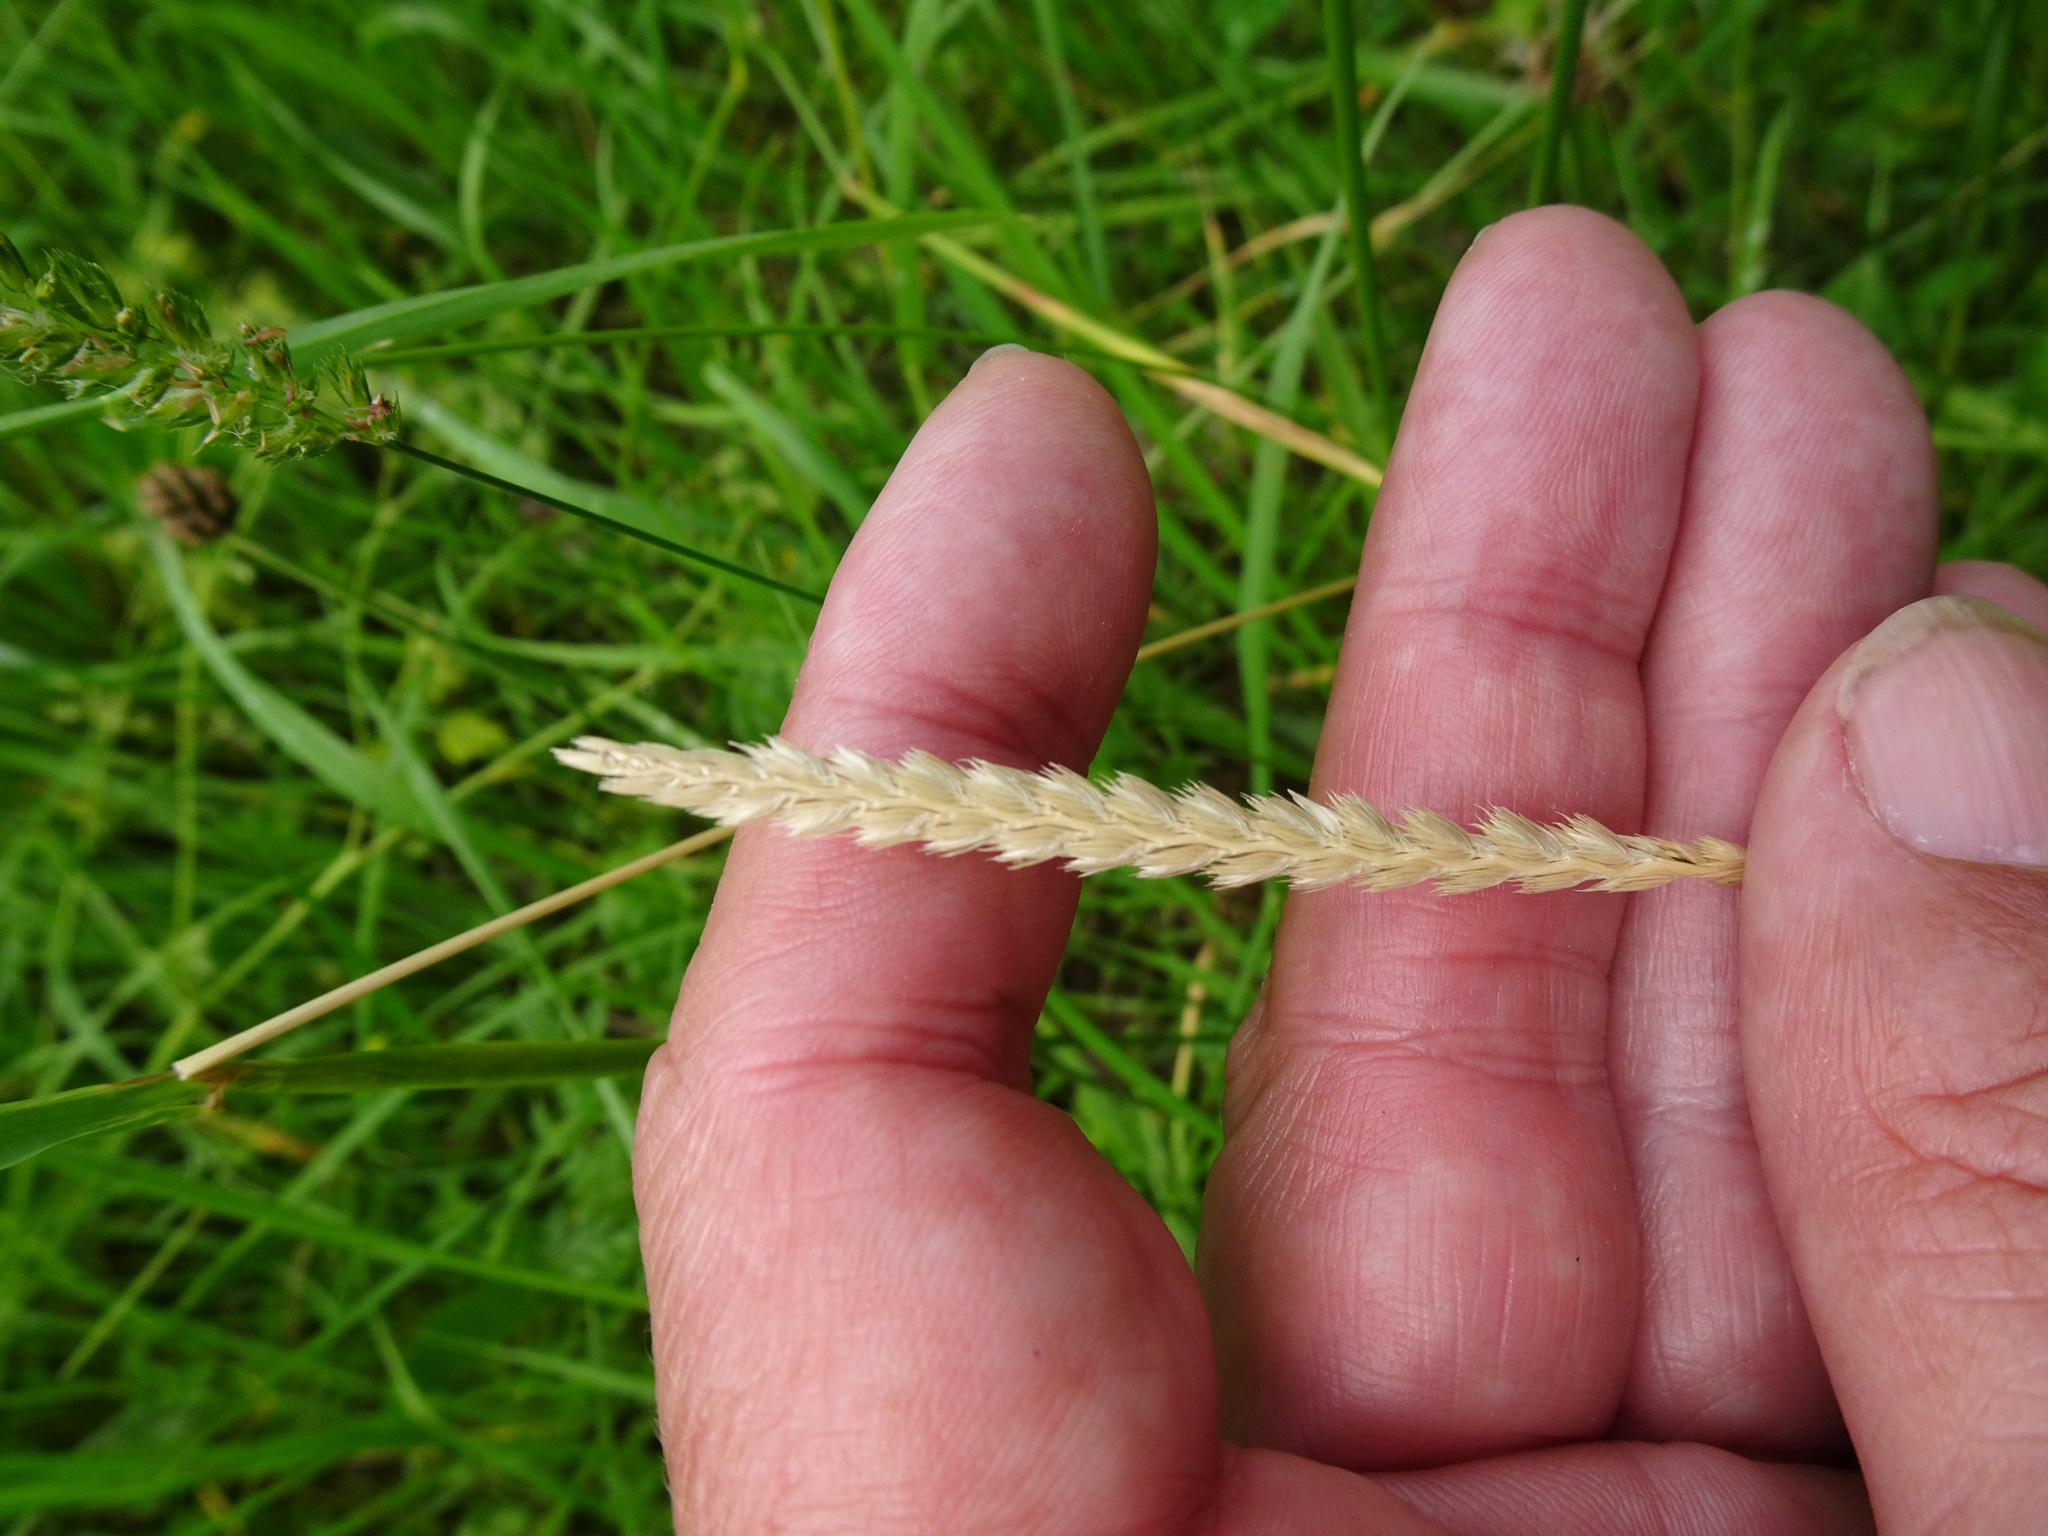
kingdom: Plantae
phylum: Tracheophyta
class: Liliopsida
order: Poales
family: Poaceae
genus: Cynosurus
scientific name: Cynosurus cristatus
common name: Crested dog's-tail
